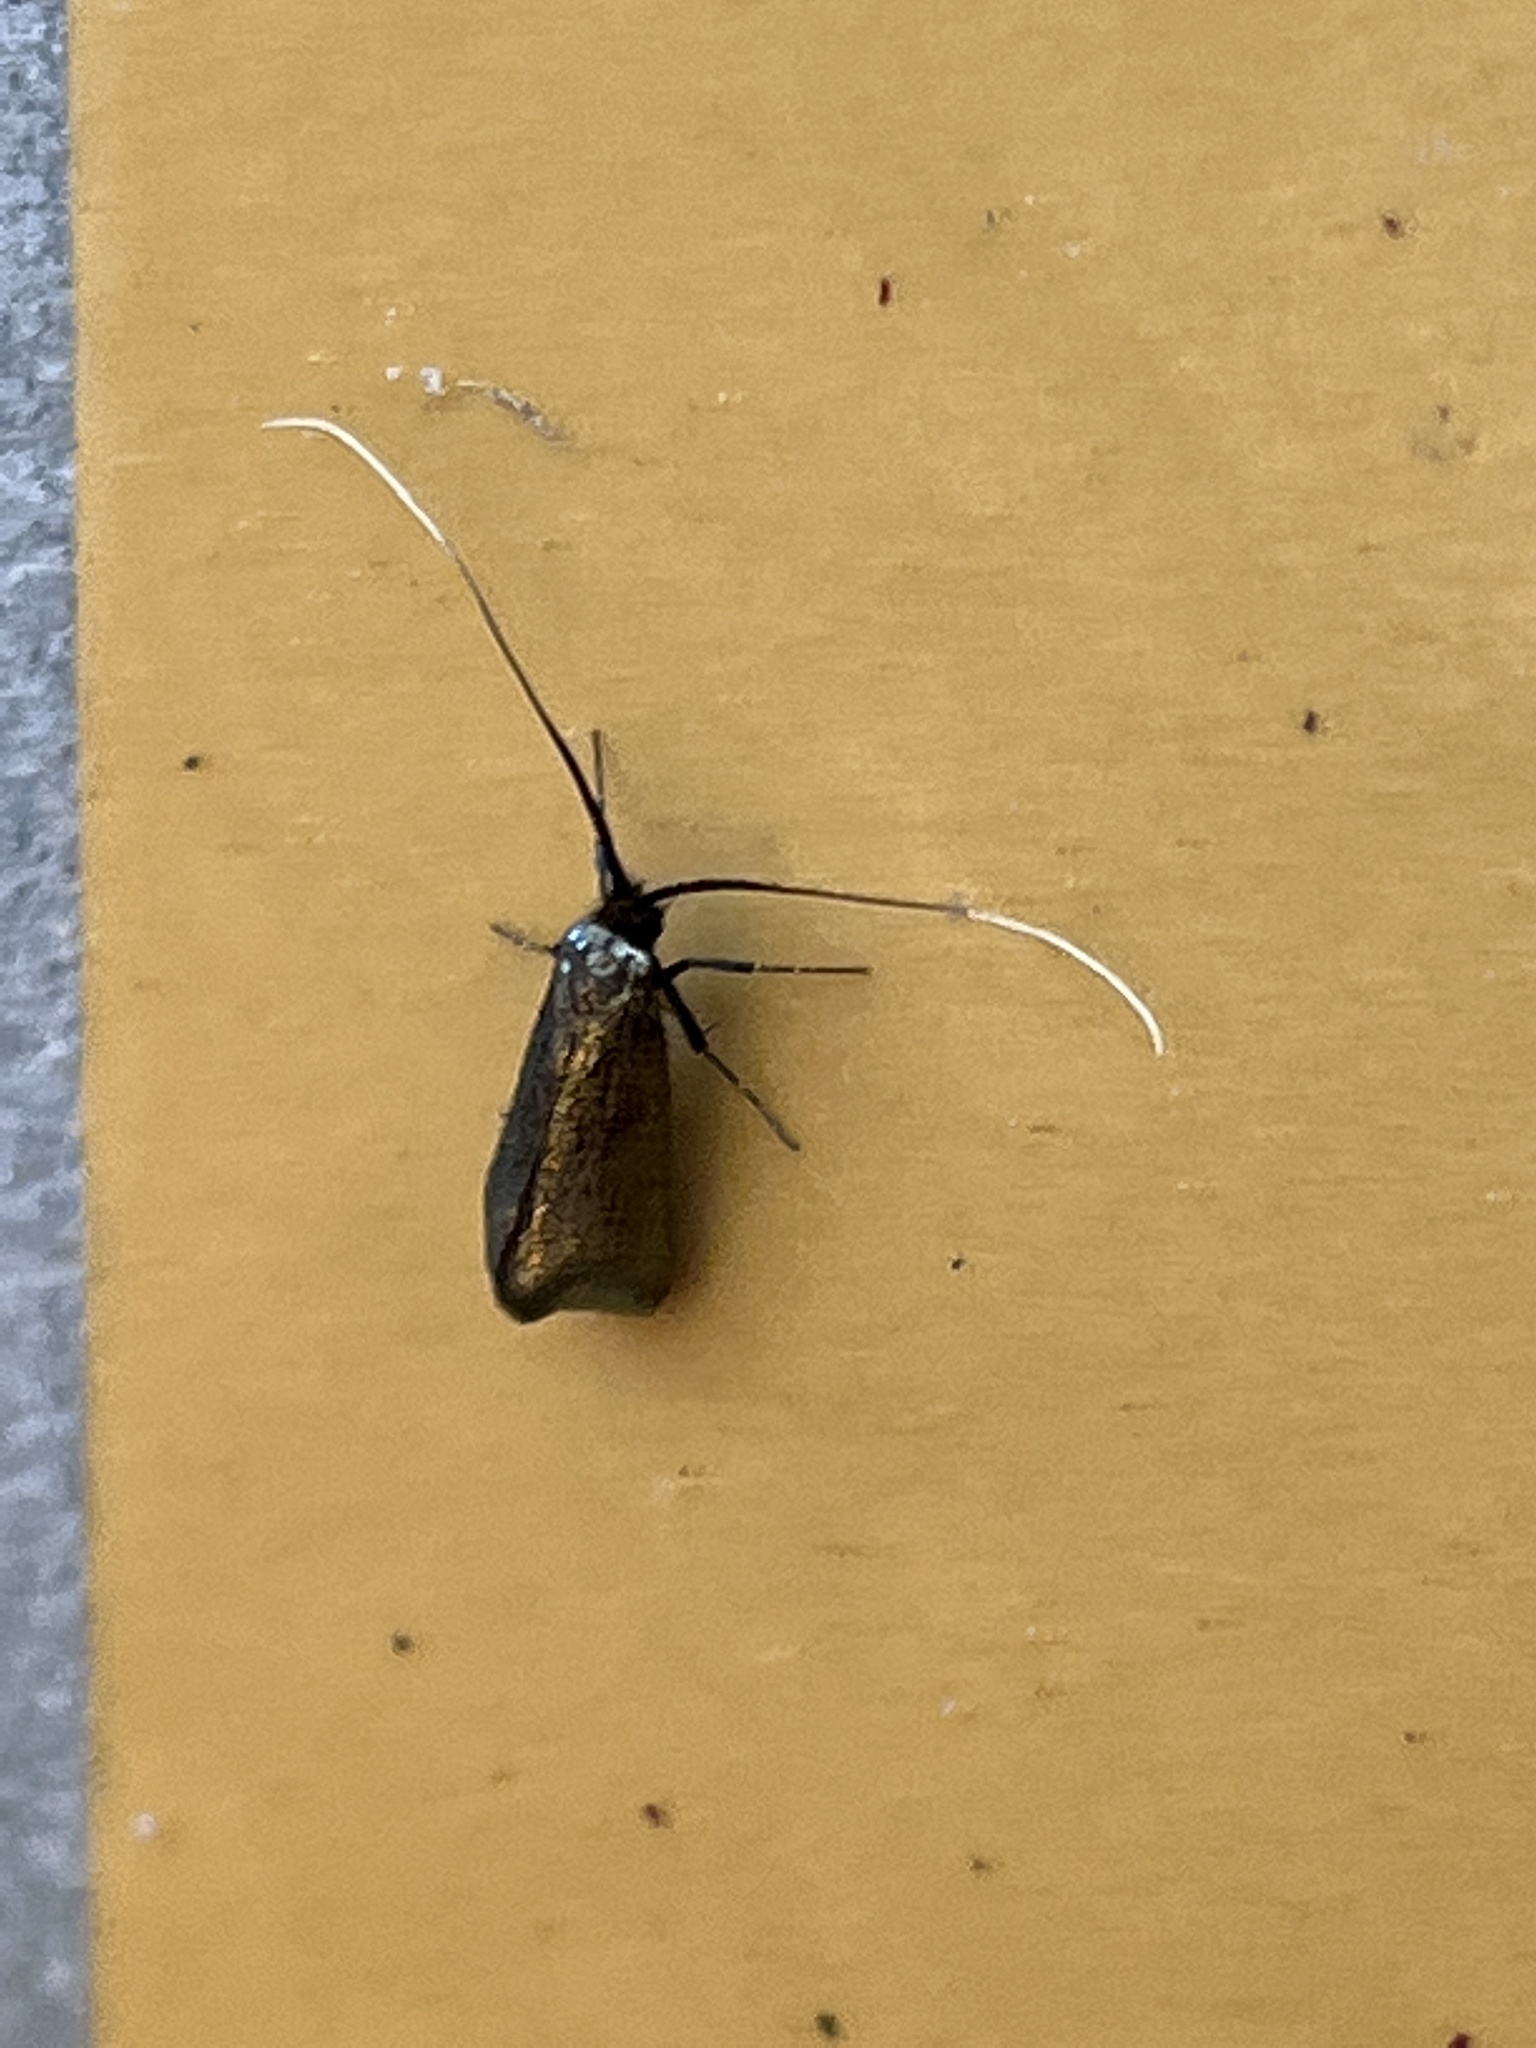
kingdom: Animalia
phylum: Arthropoda
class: Insecta
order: Lepidoptera
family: Adelidae
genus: Adela
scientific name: Adela viridella
